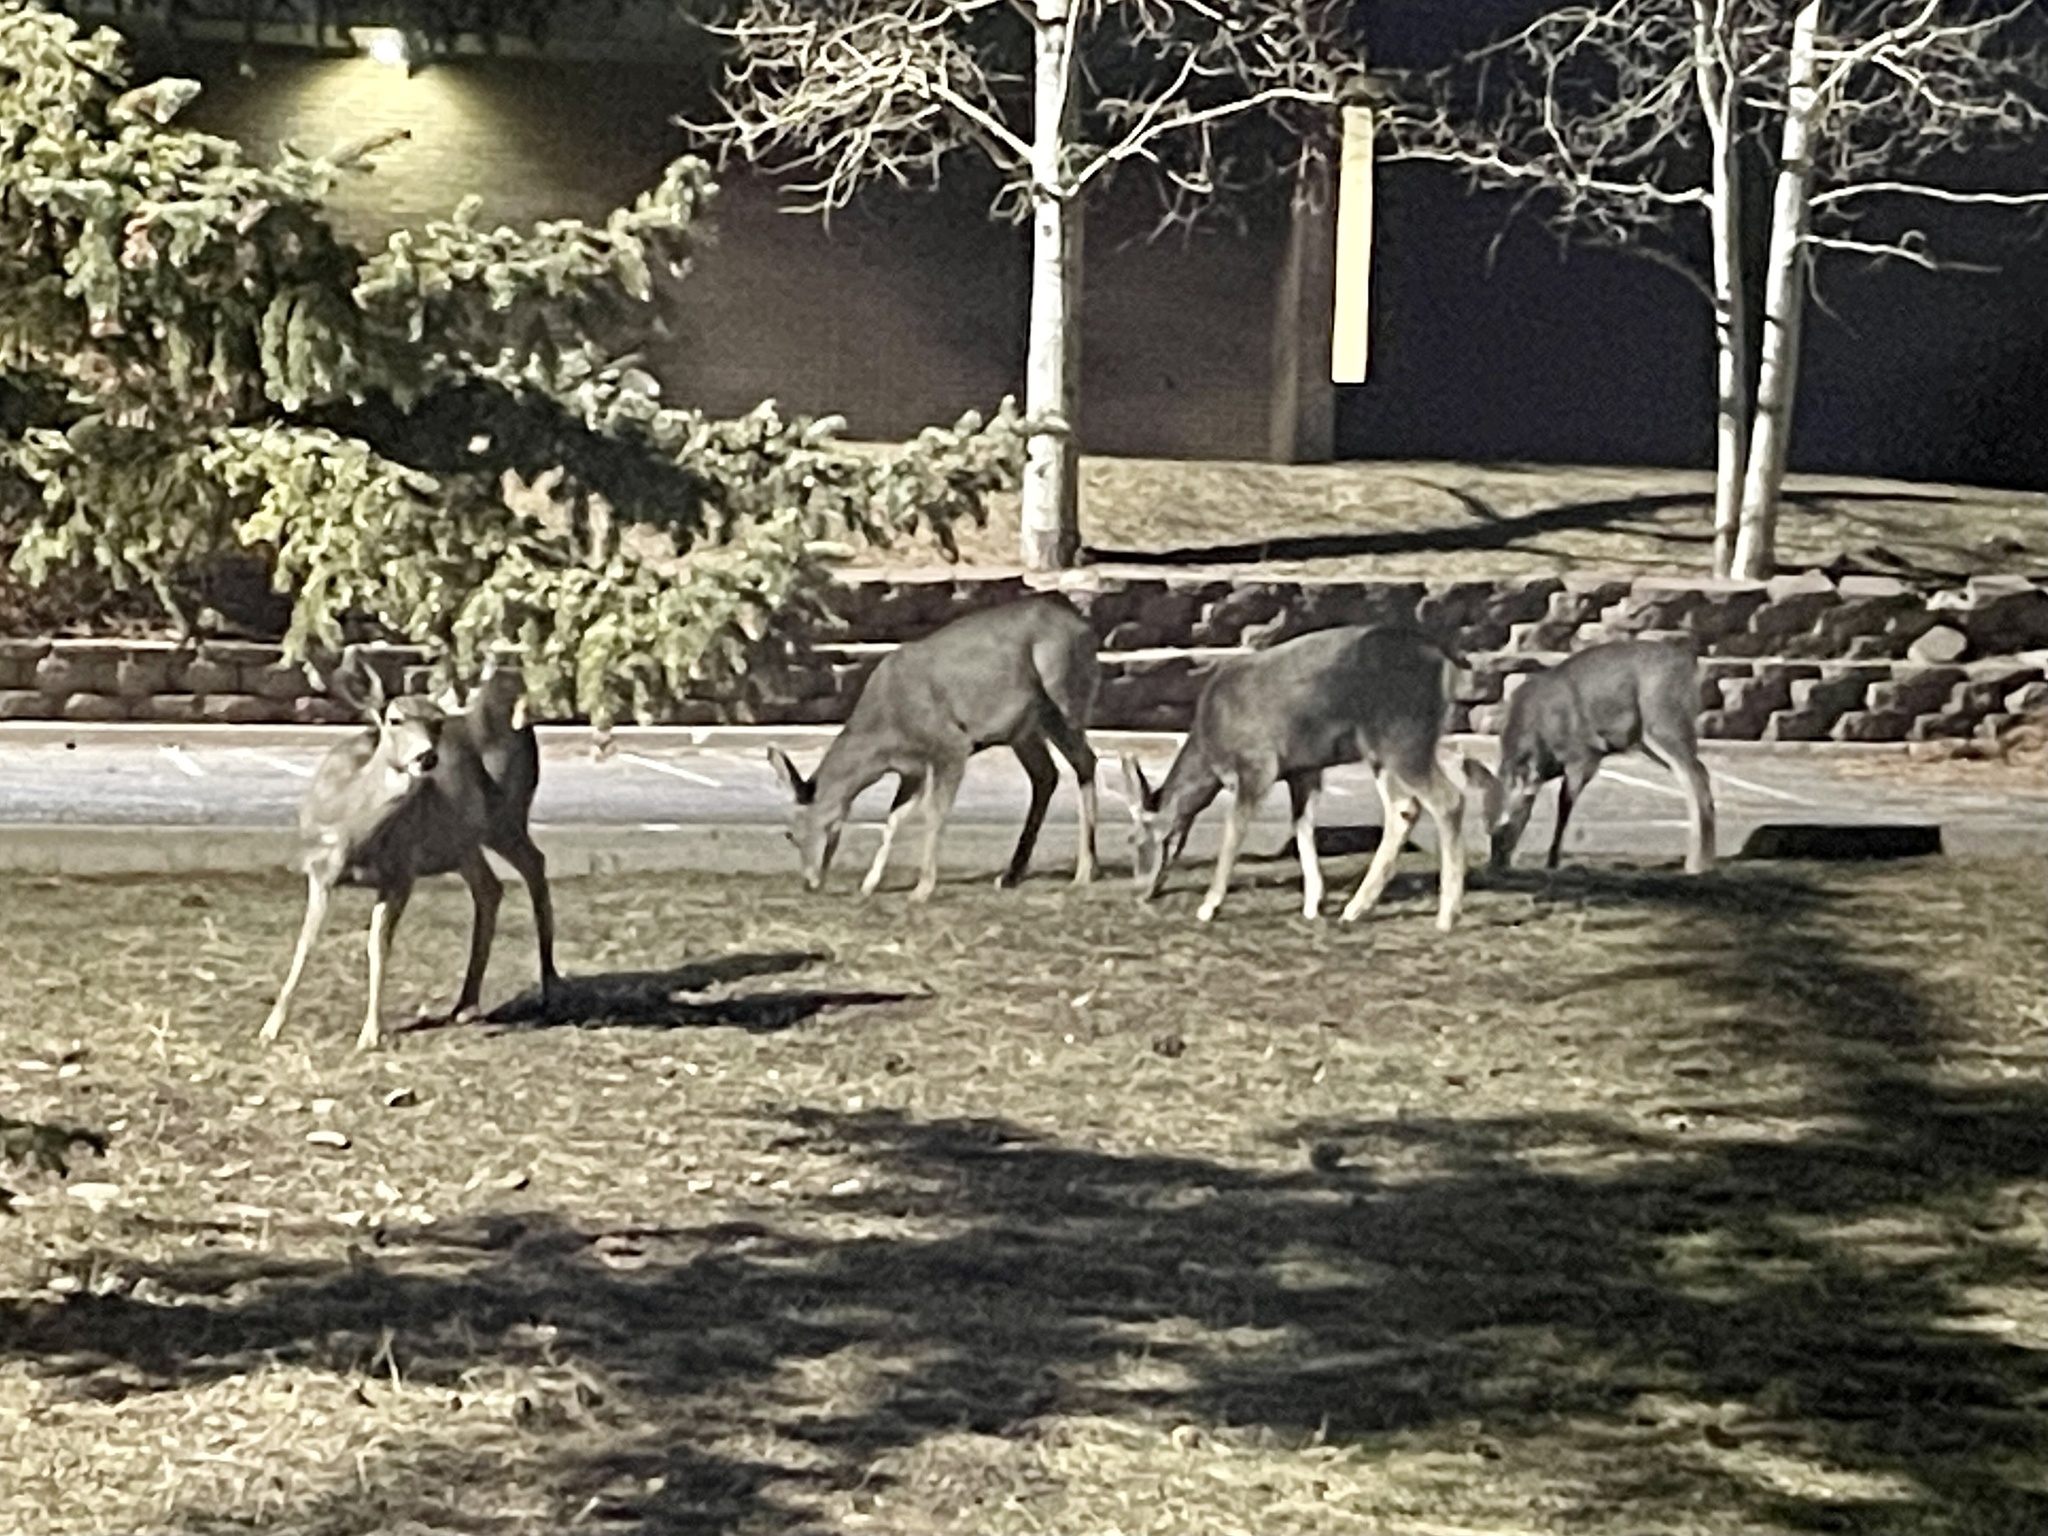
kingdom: Animalia
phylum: Chordata
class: Mammalia
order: Artiodactyla
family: Cervidae
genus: Odocoileus
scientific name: Odocoileus hemionus
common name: Mule deer
